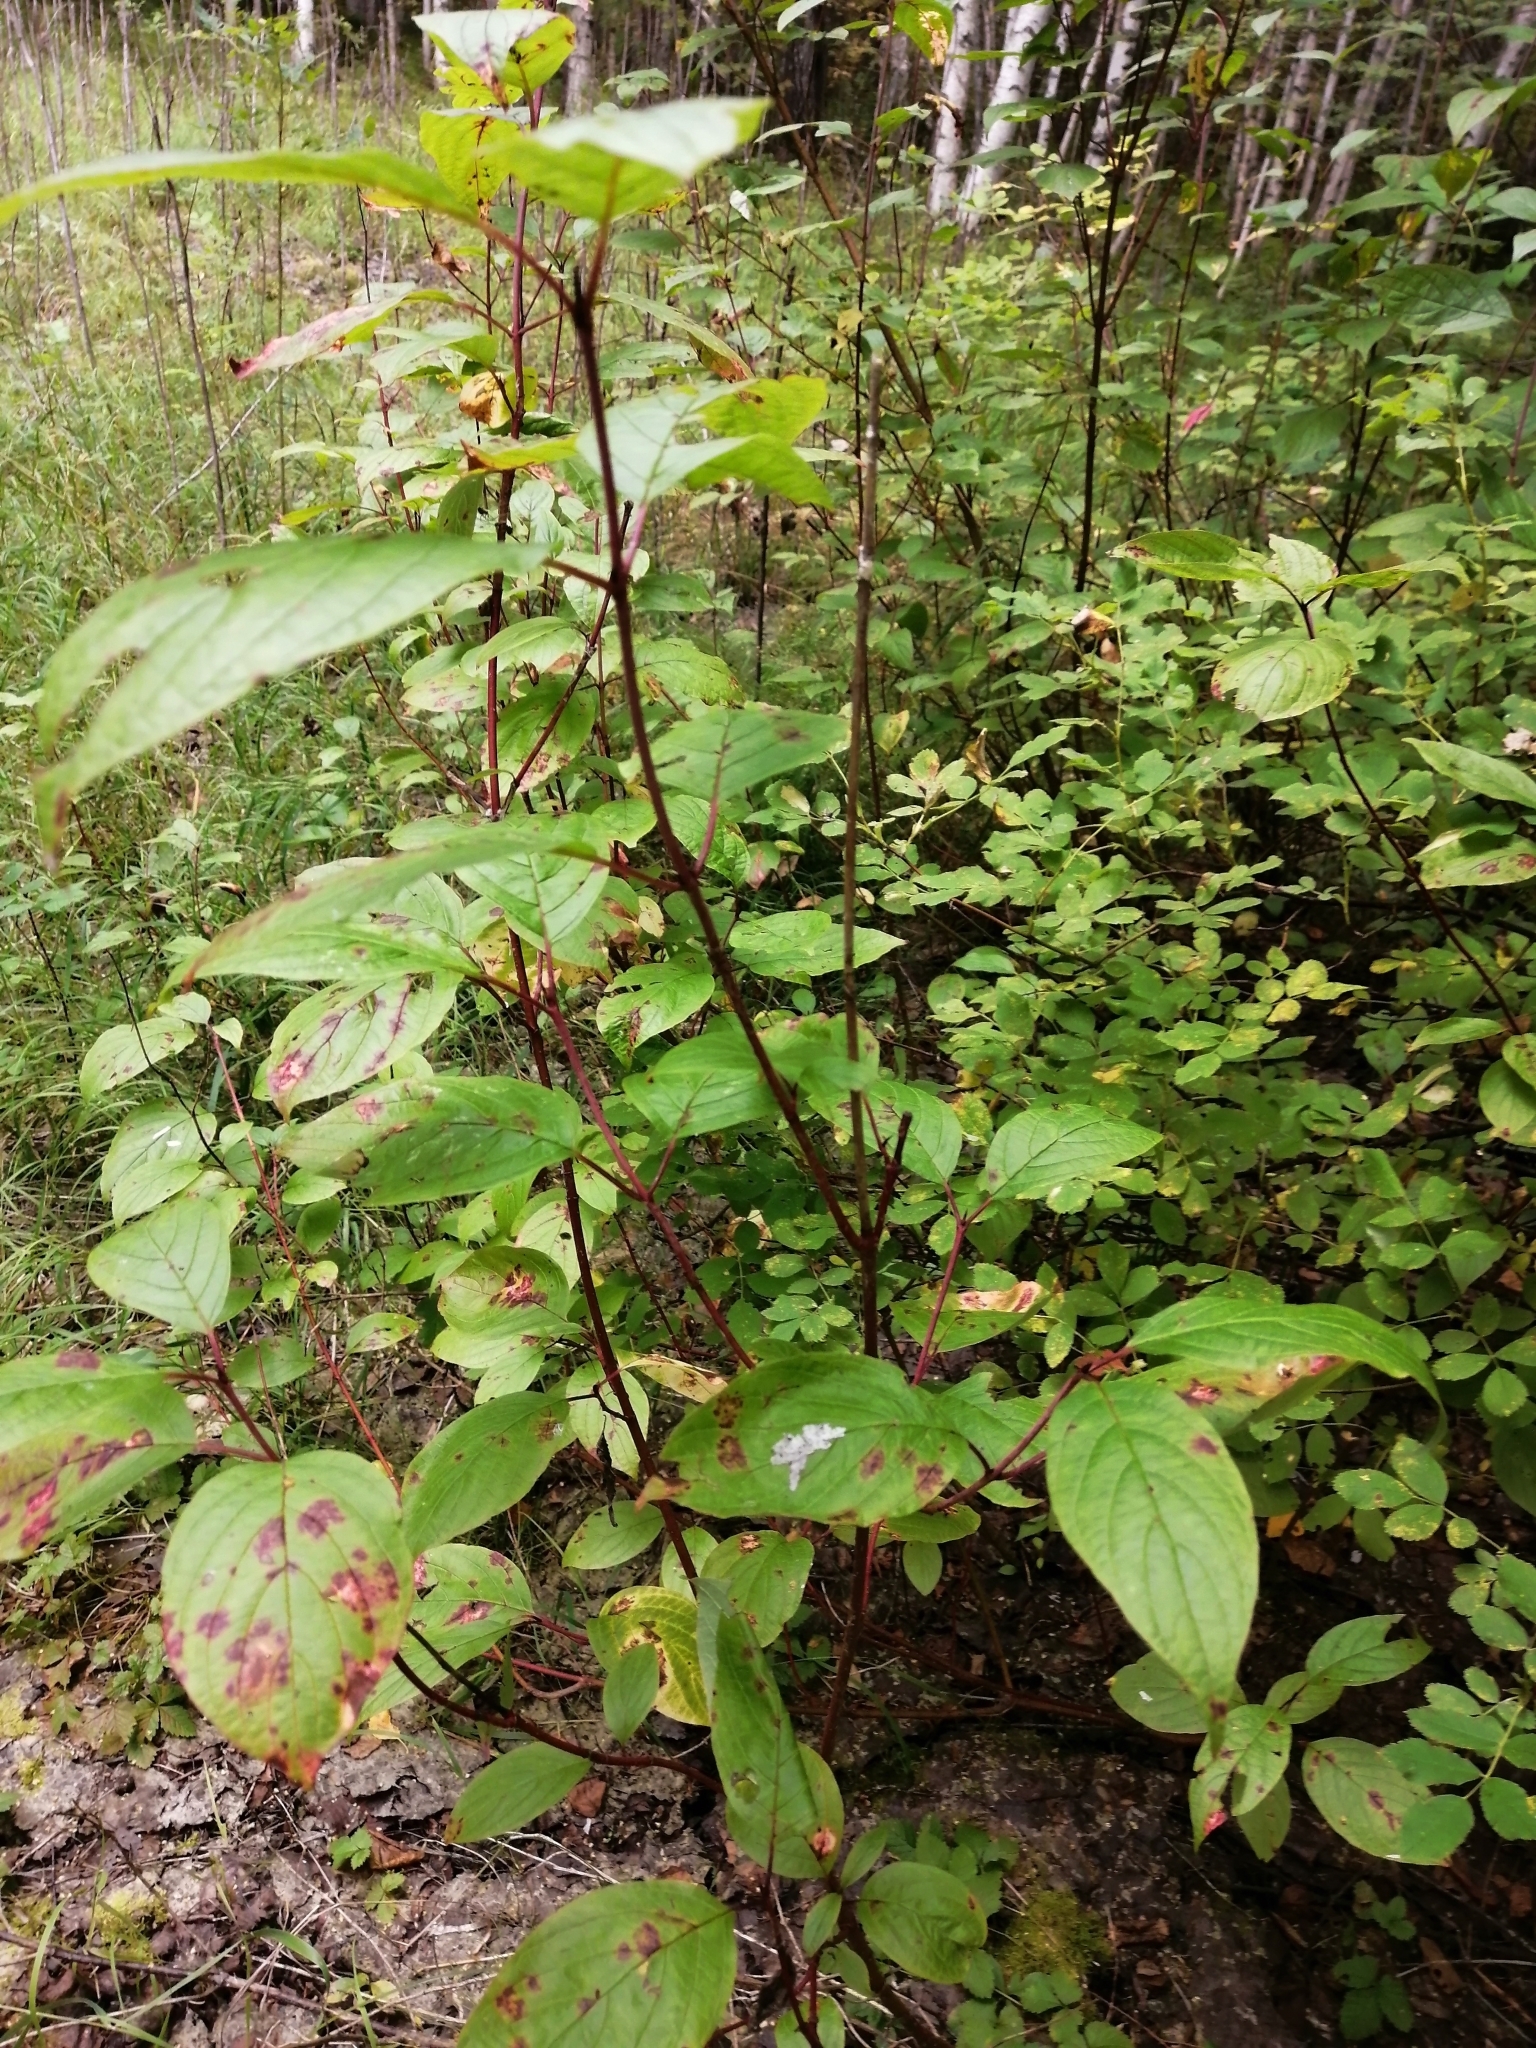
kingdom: Plantae
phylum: Tracheophyta
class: Magnoliopsida
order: Cornales
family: Cornaceae
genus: Cornus
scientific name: Cornus alba
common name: White dogwood
